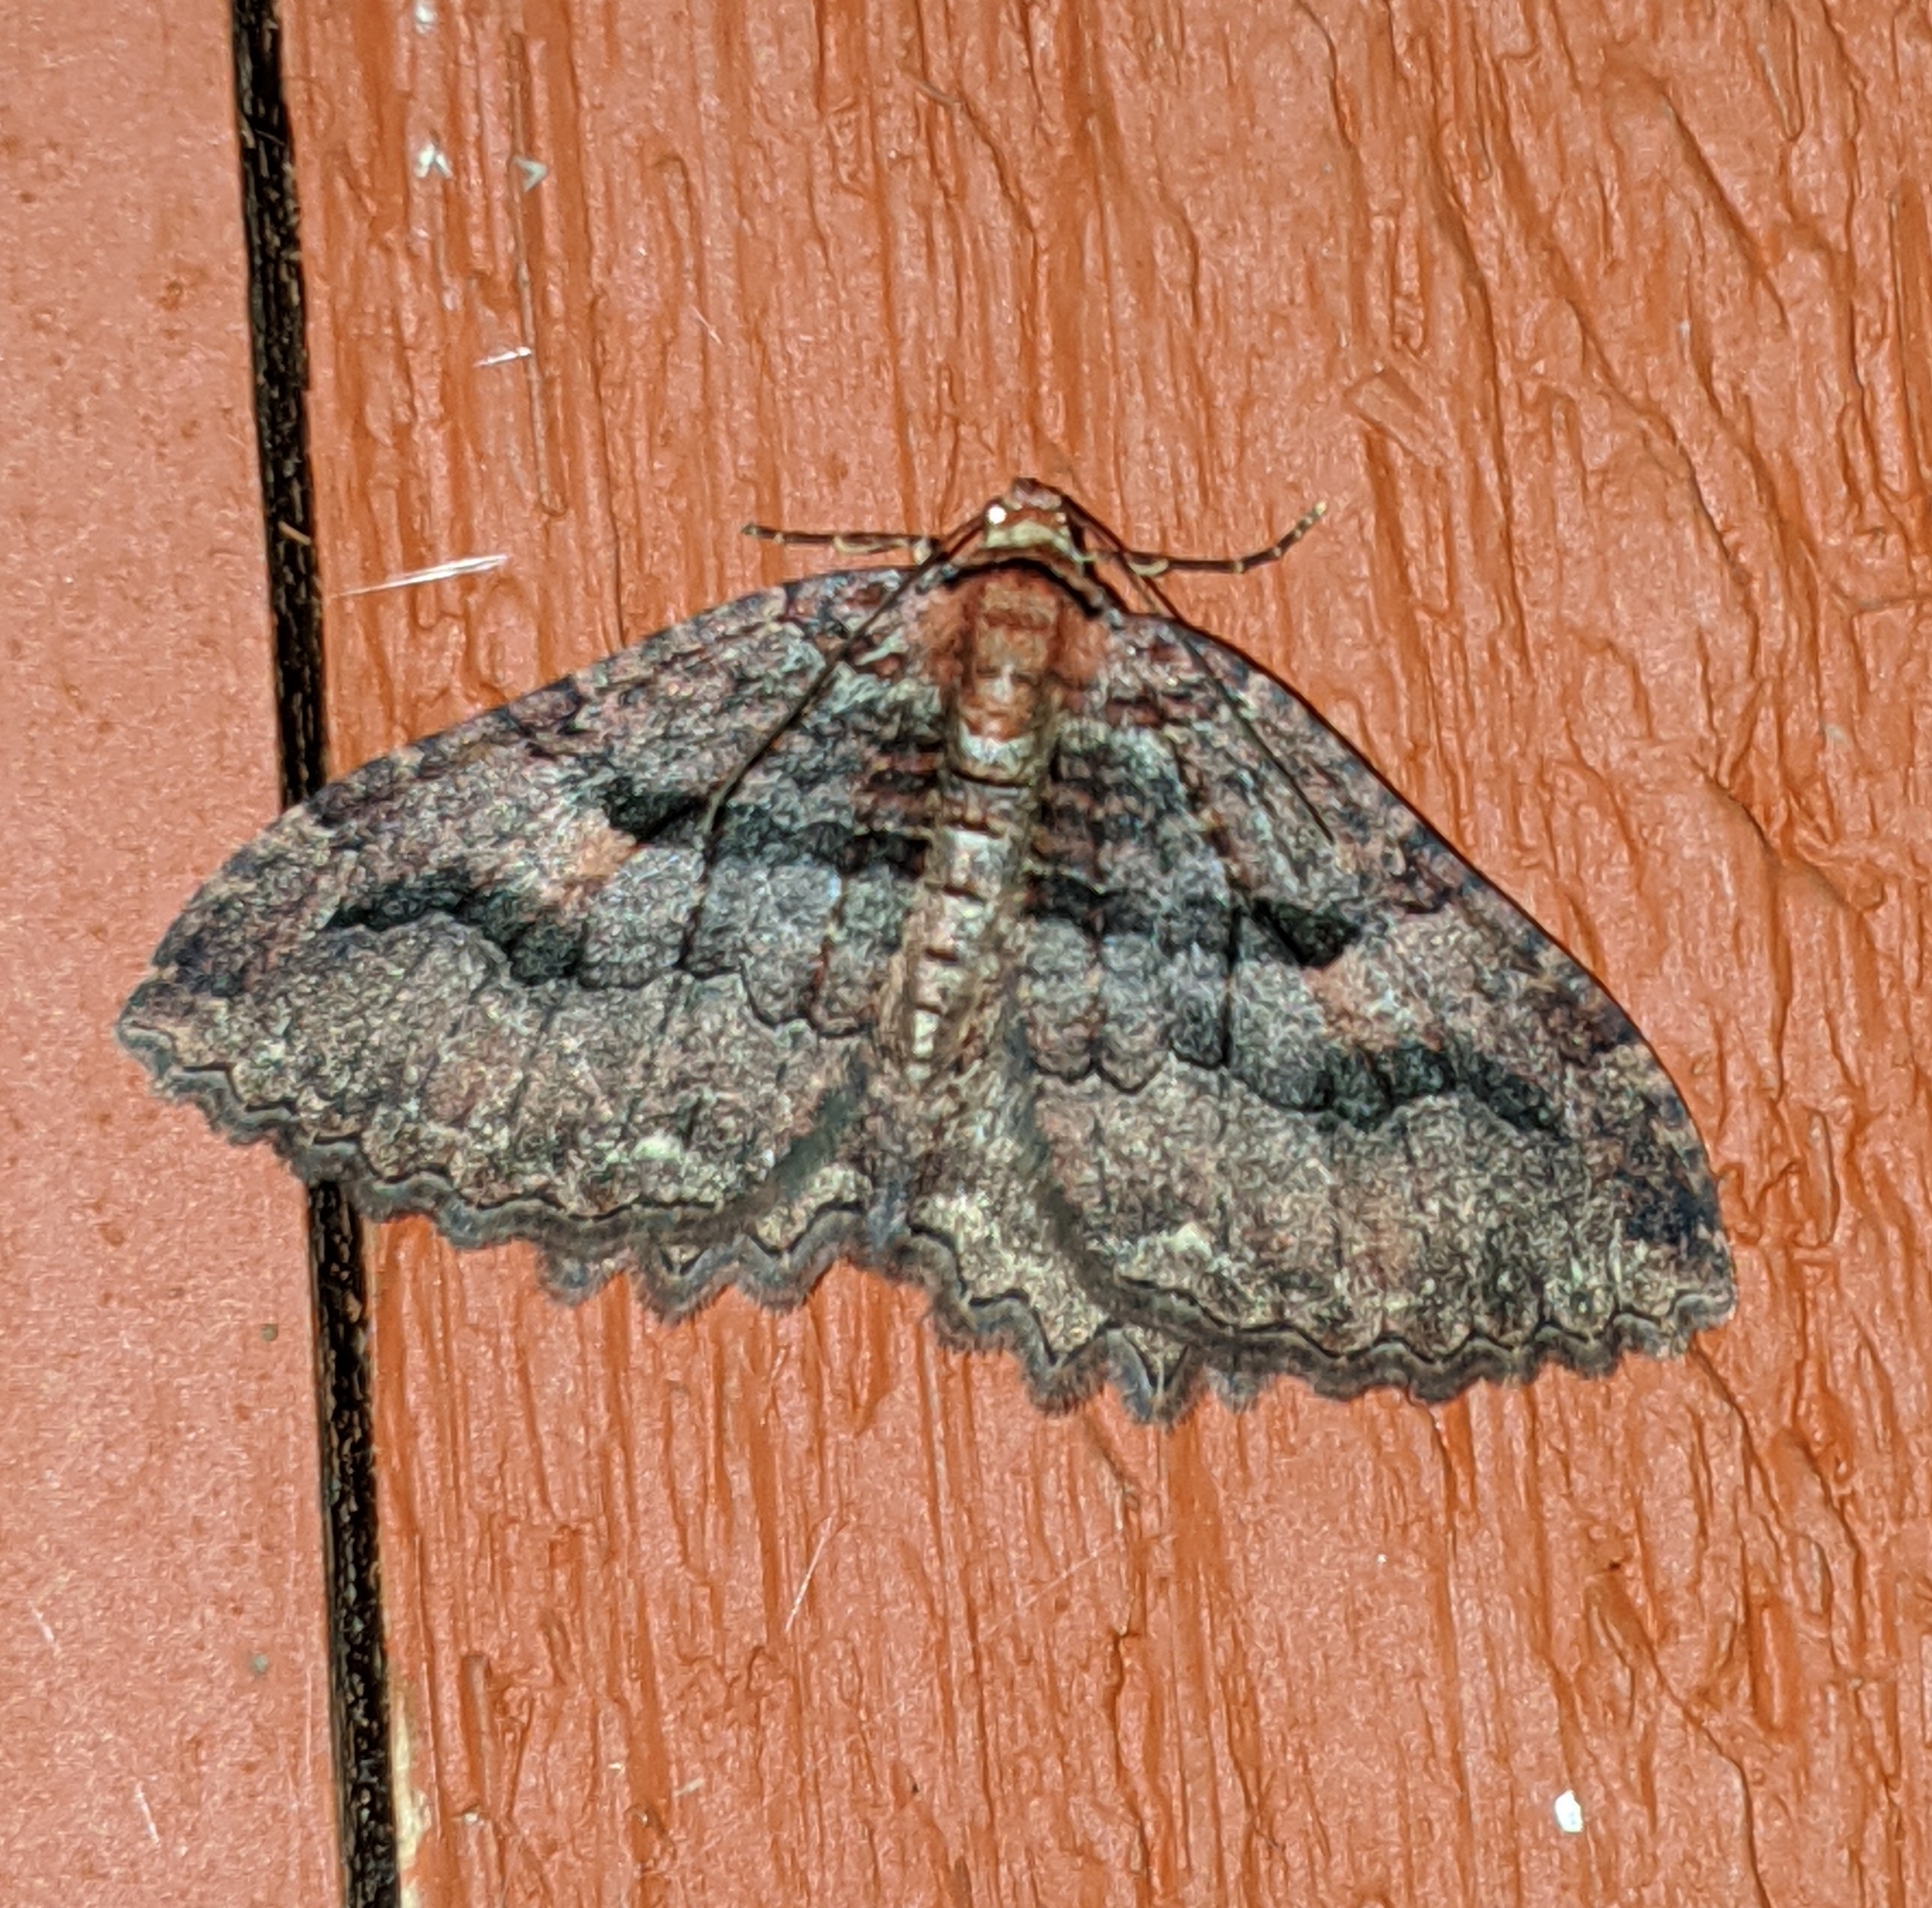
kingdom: Animalia
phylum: Arthropoda
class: Insecta
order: Lepidoptera
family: Geometridae
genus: Triphosa
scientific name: Triphosa haesitata
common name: Tissue moth
